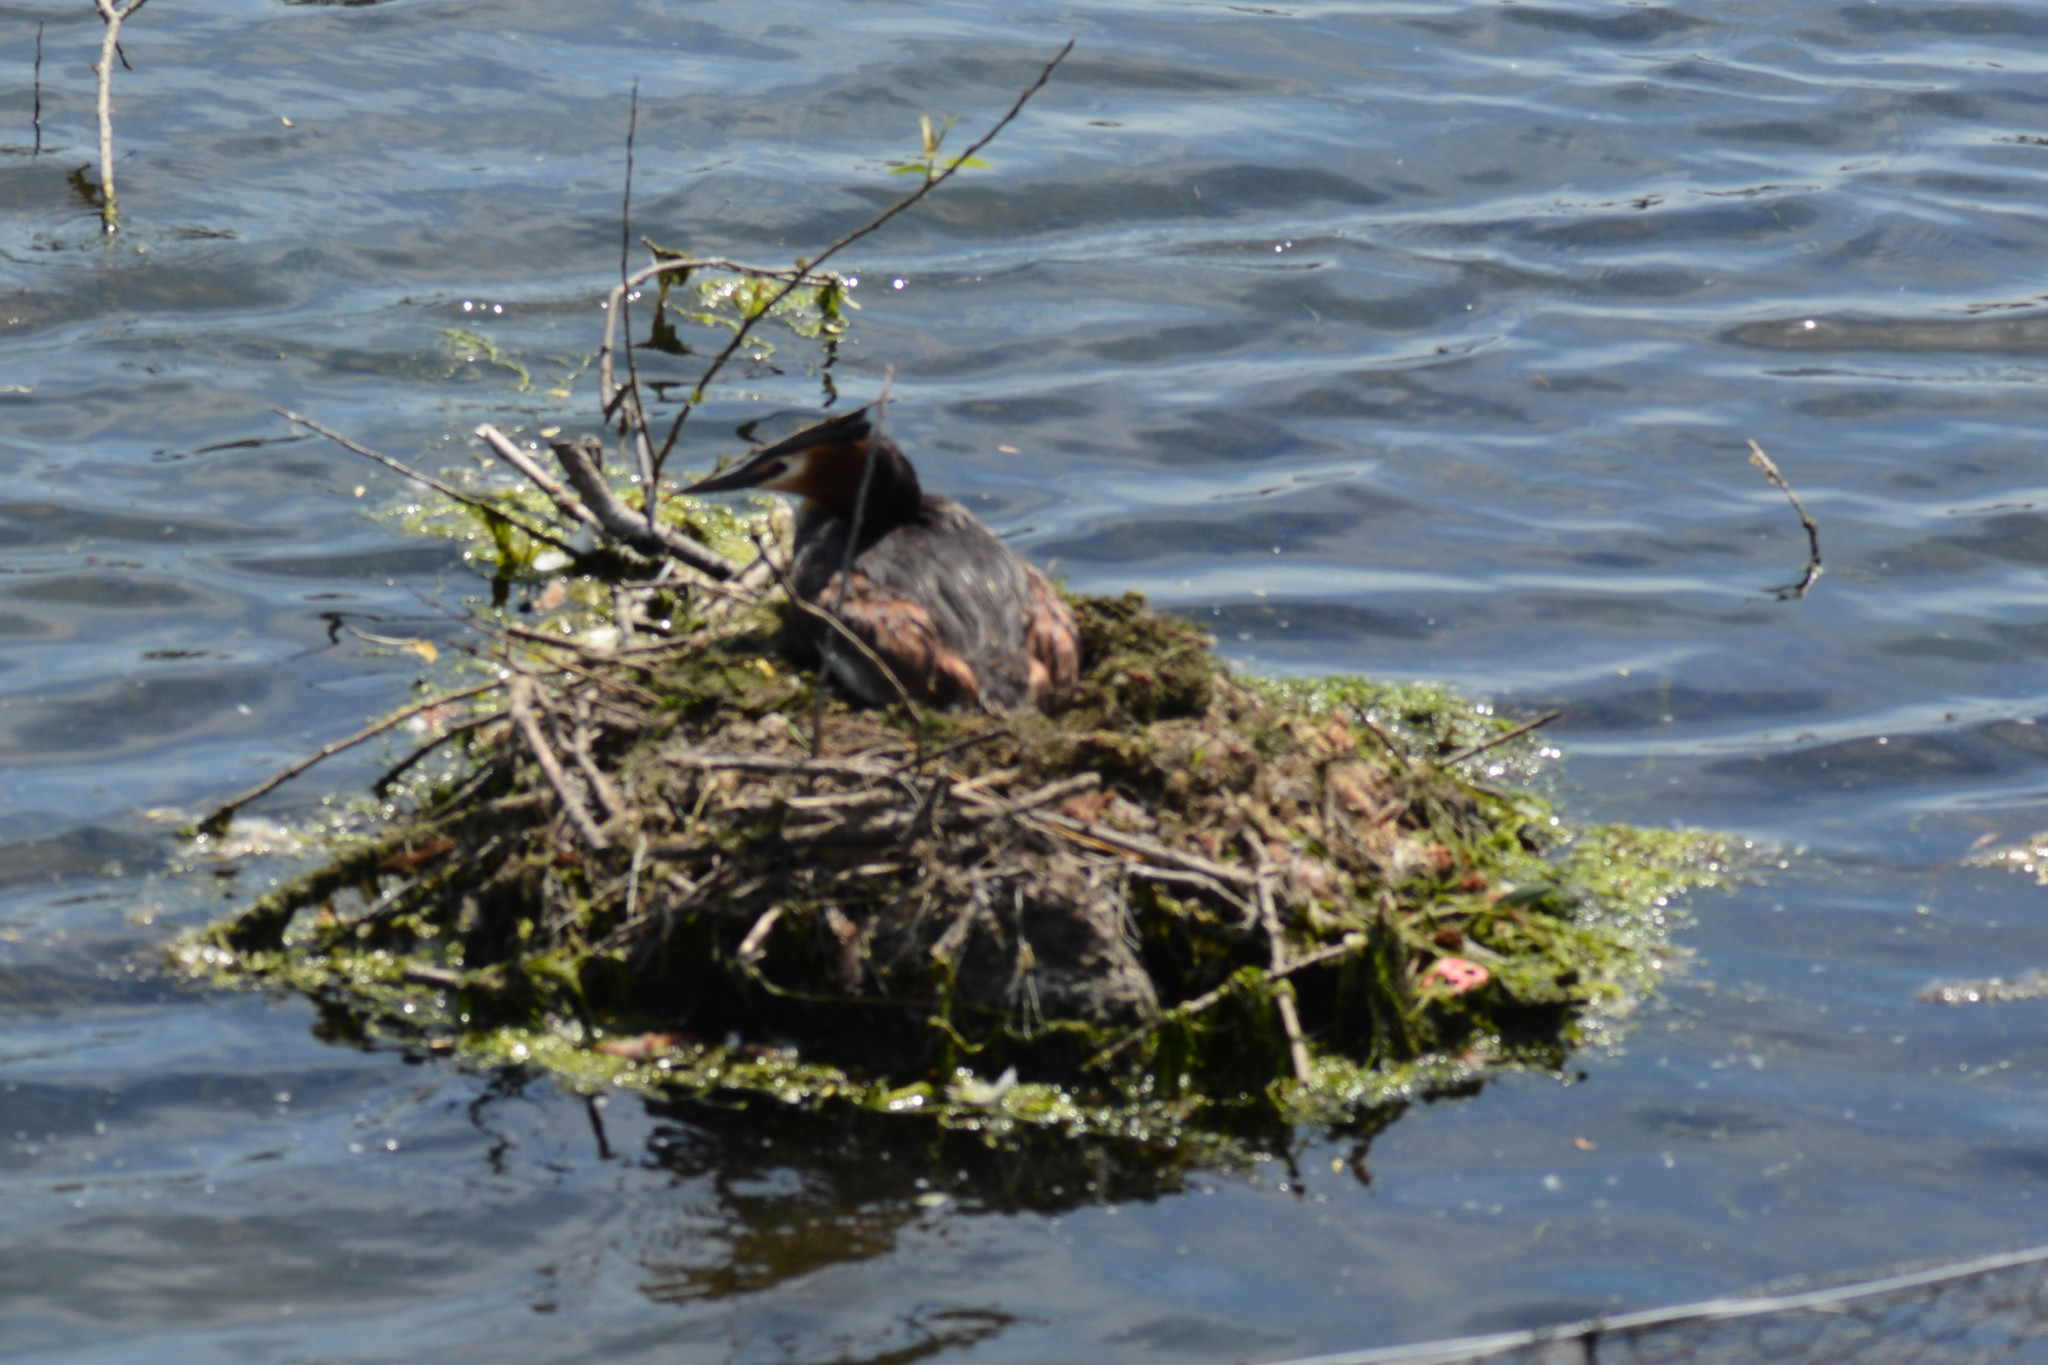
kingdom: Animalia
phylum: Chordata
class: Aves
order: Podicipediformes
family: Podicipedidae
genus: Podiceps
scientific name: Podiceps cristatus
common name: Great crested grebe
